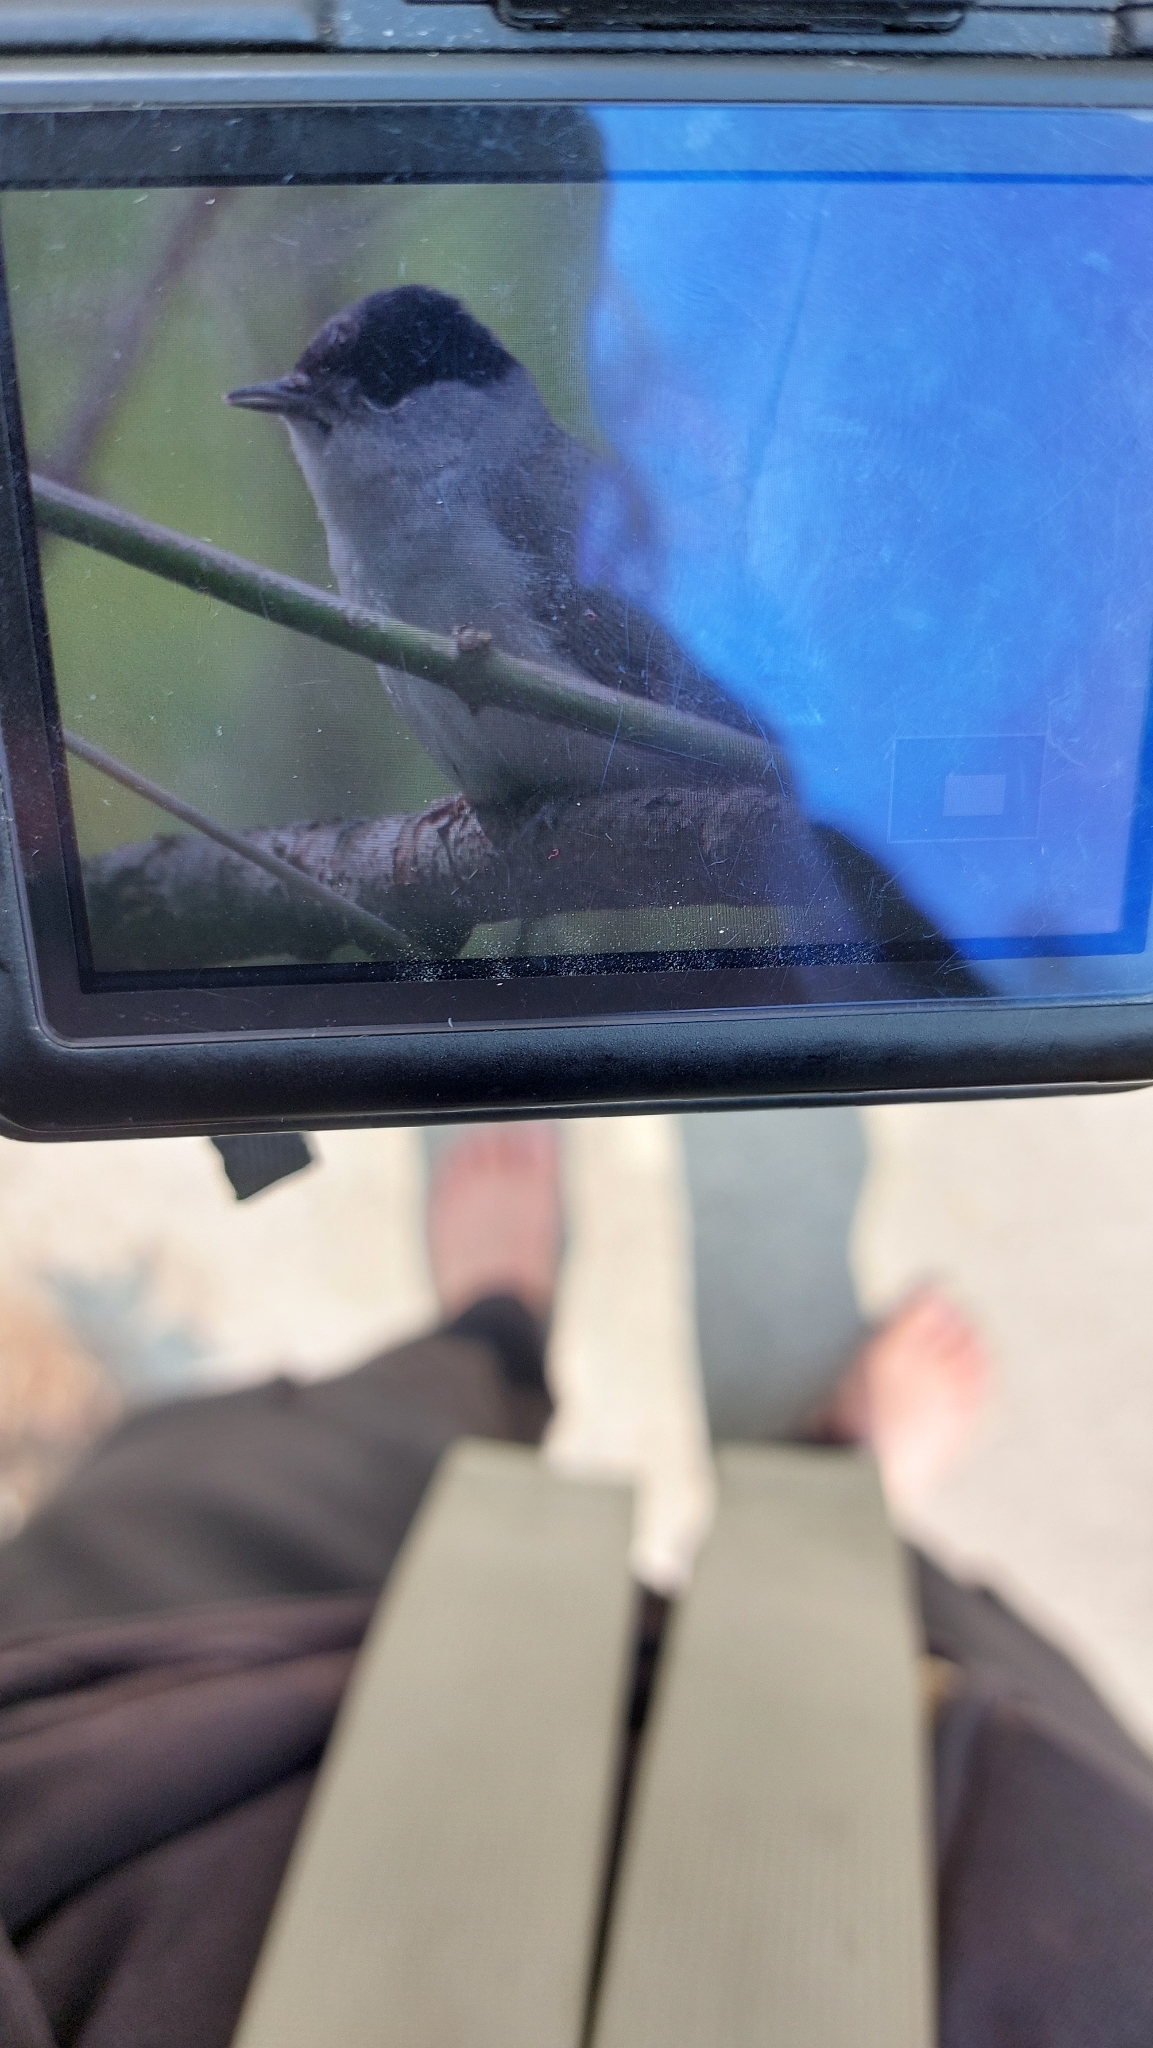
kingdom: Animalia
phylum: Chordata
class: Aves
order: Passeriformes
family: Sylviidae
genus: Sylvia
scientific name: Sylvia atricapilla
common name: Eurasian blackcap
